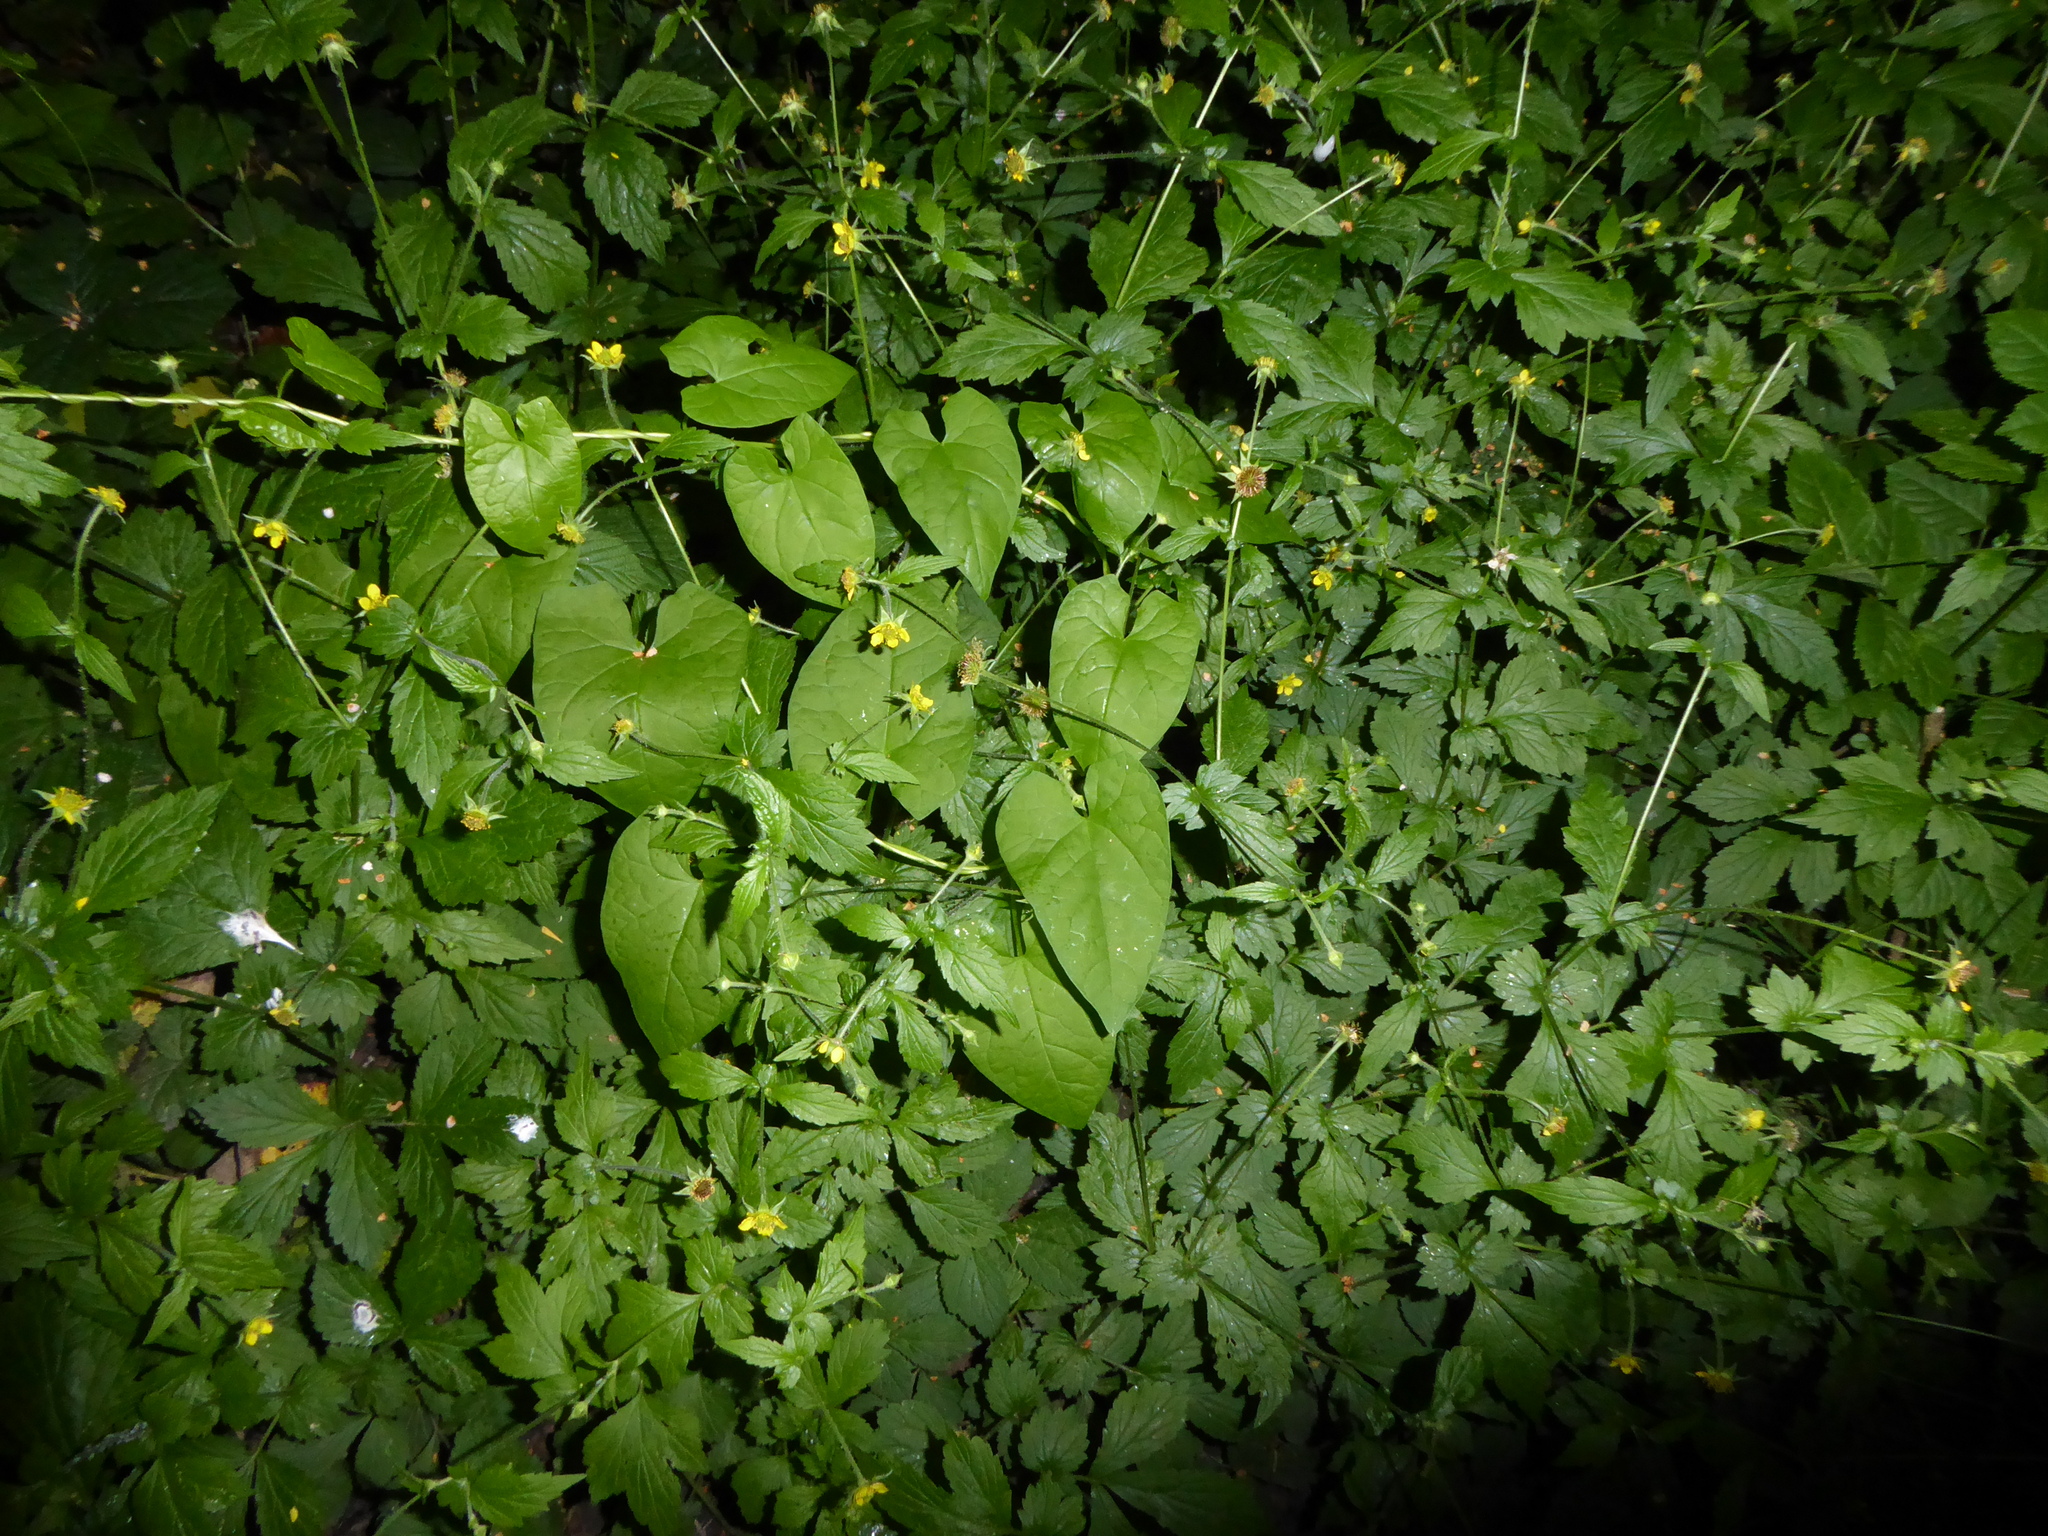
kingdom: Plantae
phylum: Tracheophyta
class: Magnoliopsida
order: Rosales
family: Rosaceae
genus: Geum
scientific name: Geum urbanum
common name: Wood avens
